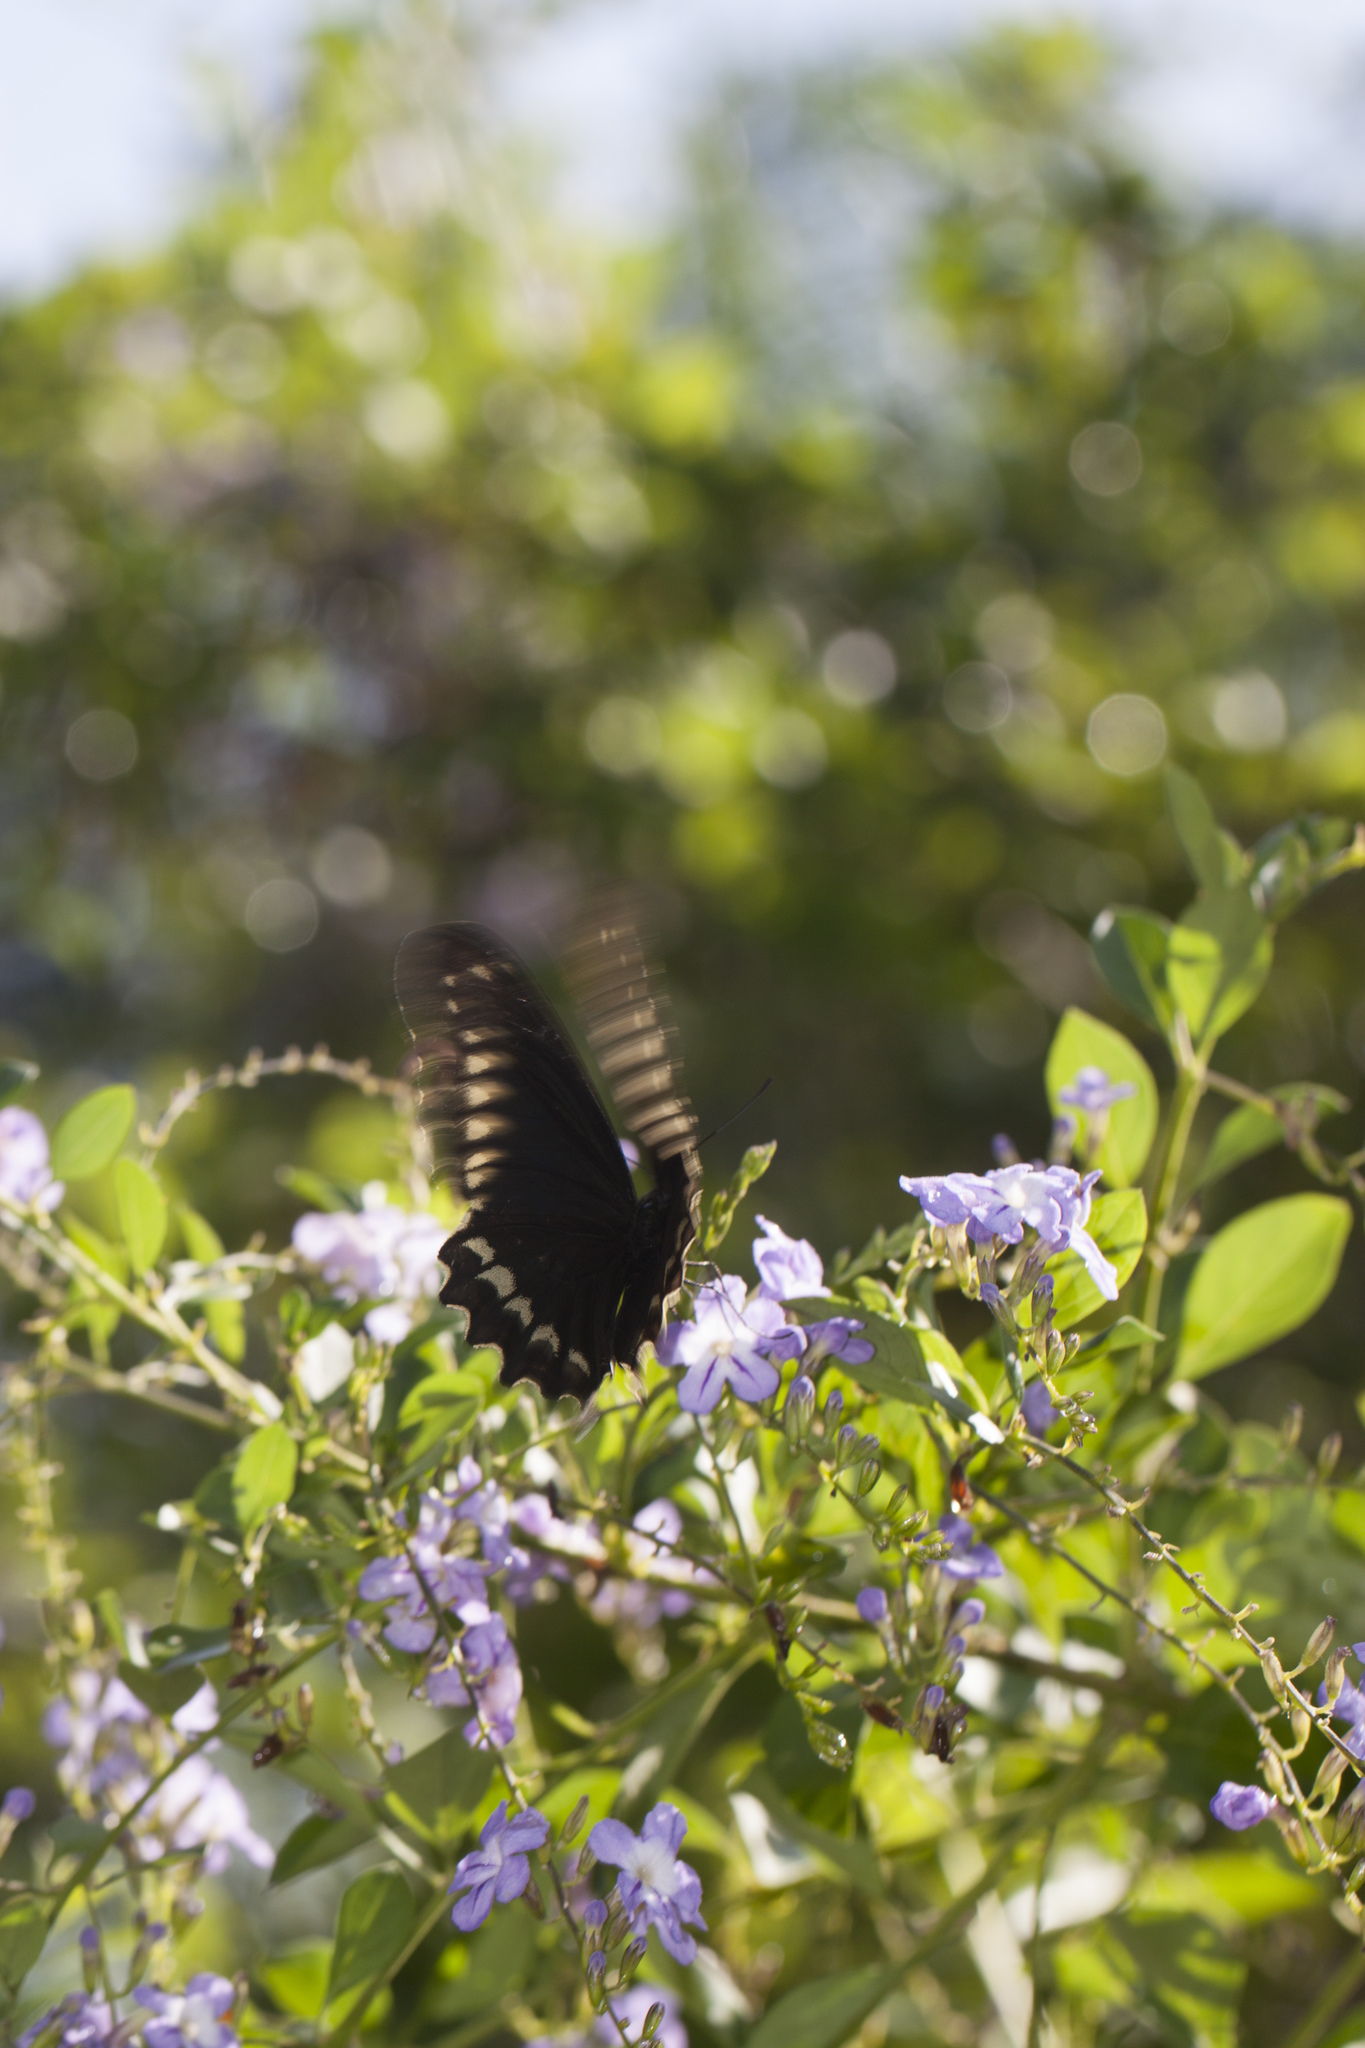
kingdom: Animalia
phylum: Arthropoda
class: Insecta
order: Lepidoptera
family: Papilionidae
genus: Battus
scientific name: Battus polydamas
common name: Polydamas swallowtail
